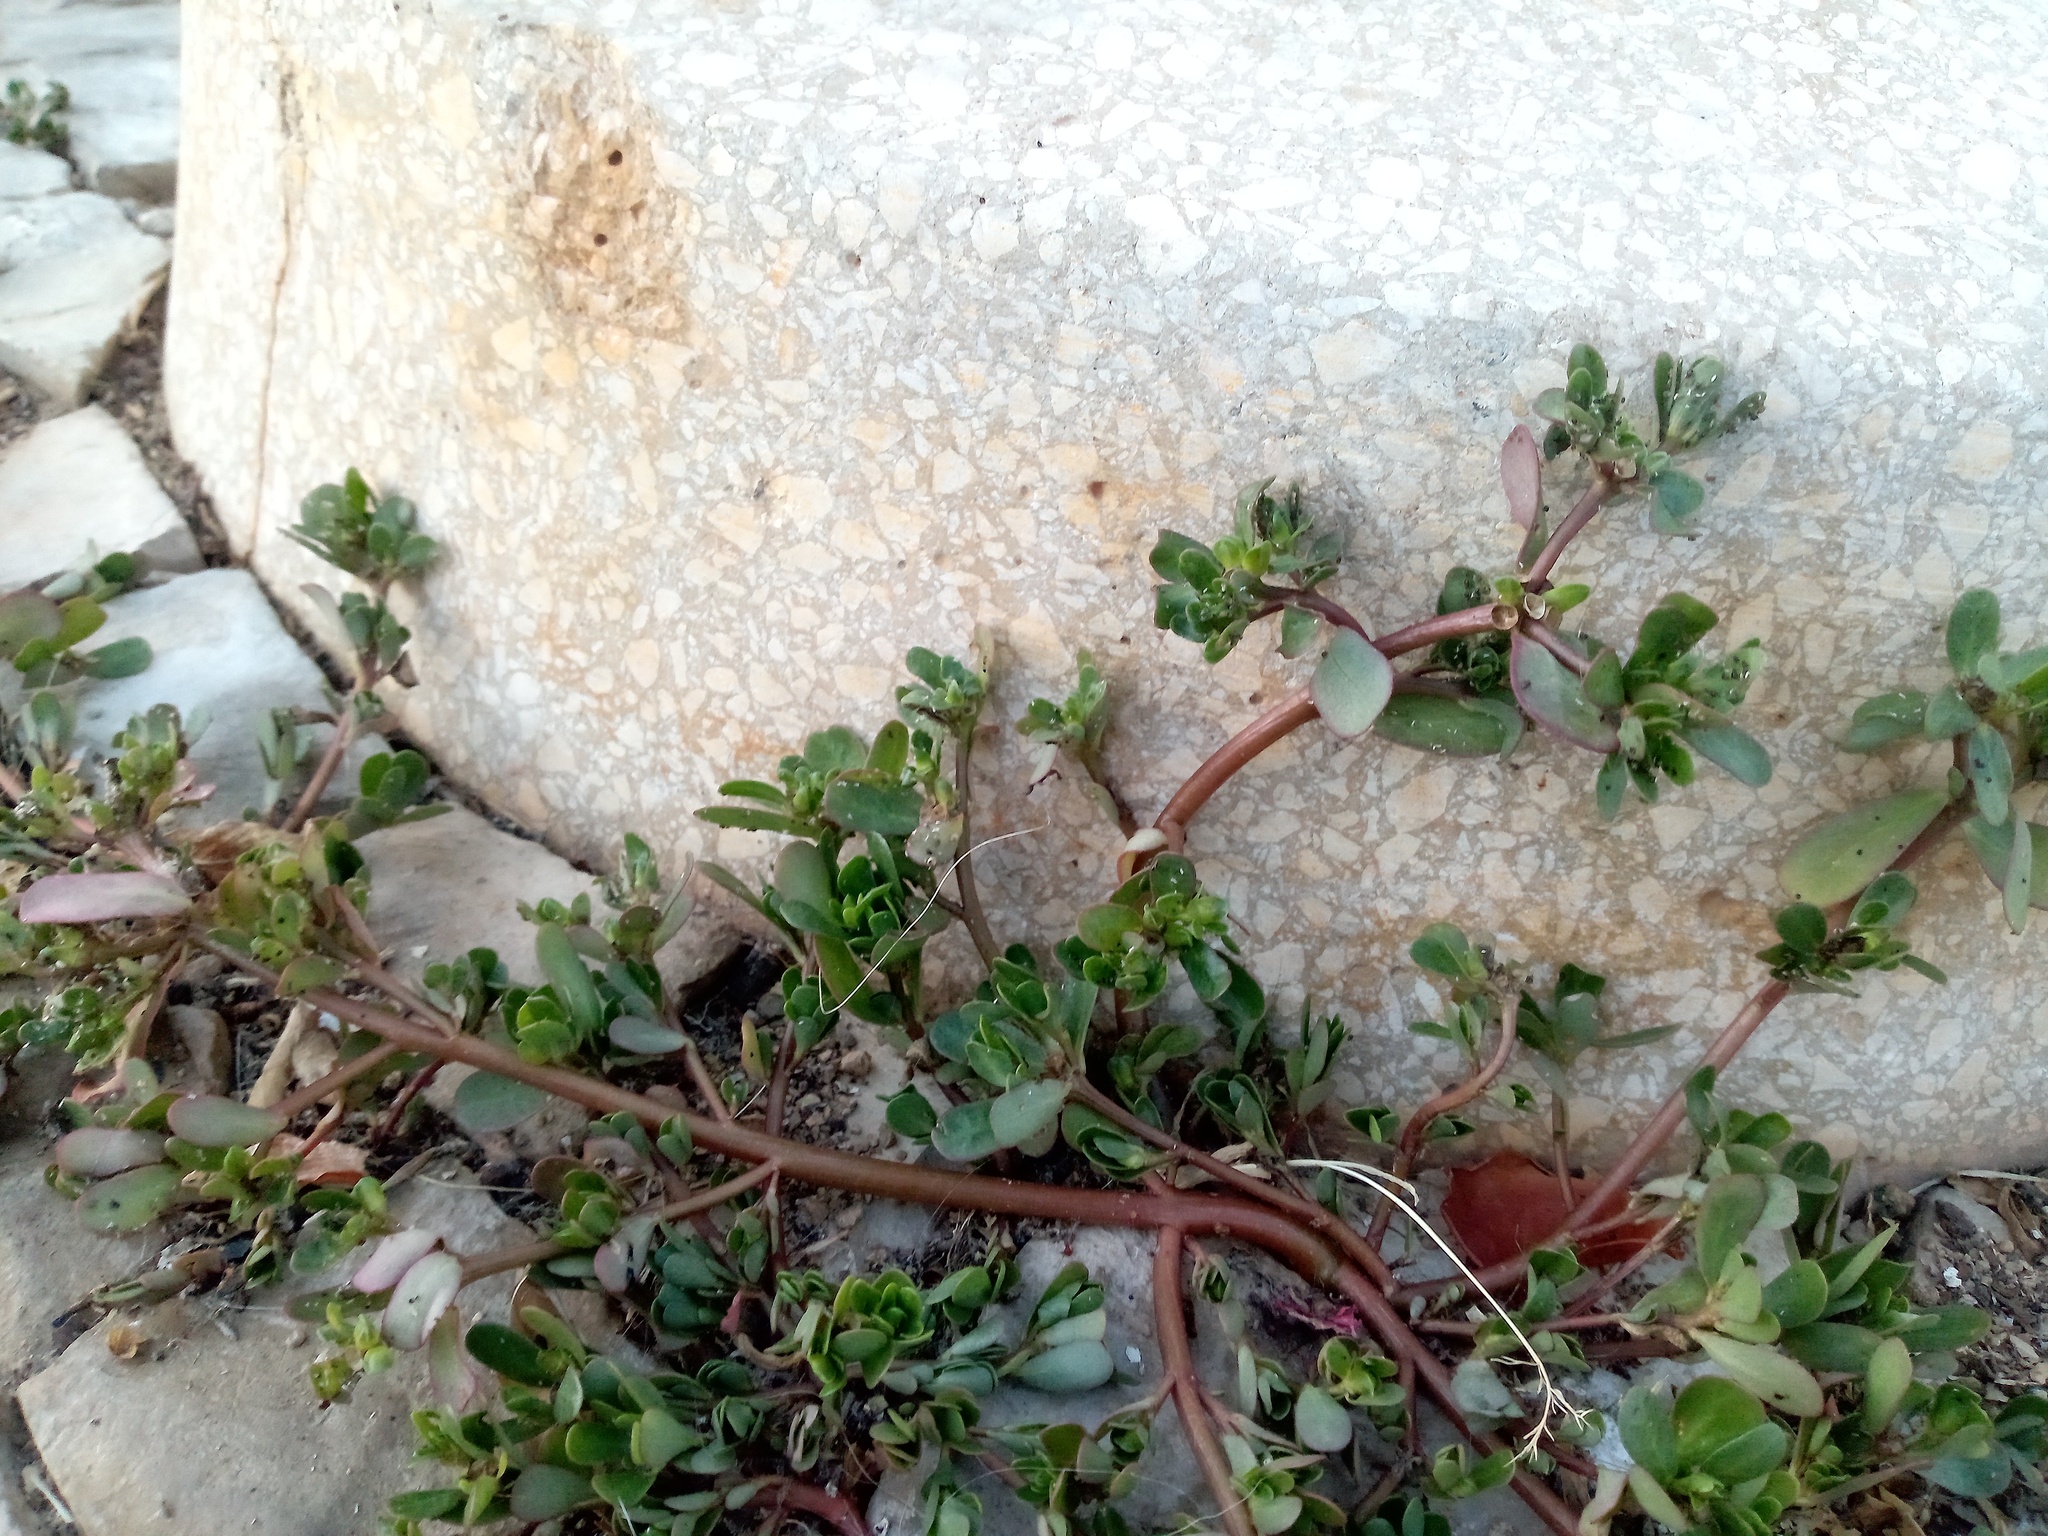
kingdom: Plantae
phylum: Tracheophyta
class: Magnoliopsida
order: Caryophyllales
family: Portulacaceae
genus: Portulaca
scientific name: Portulaca oleracea
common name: Common purslane
